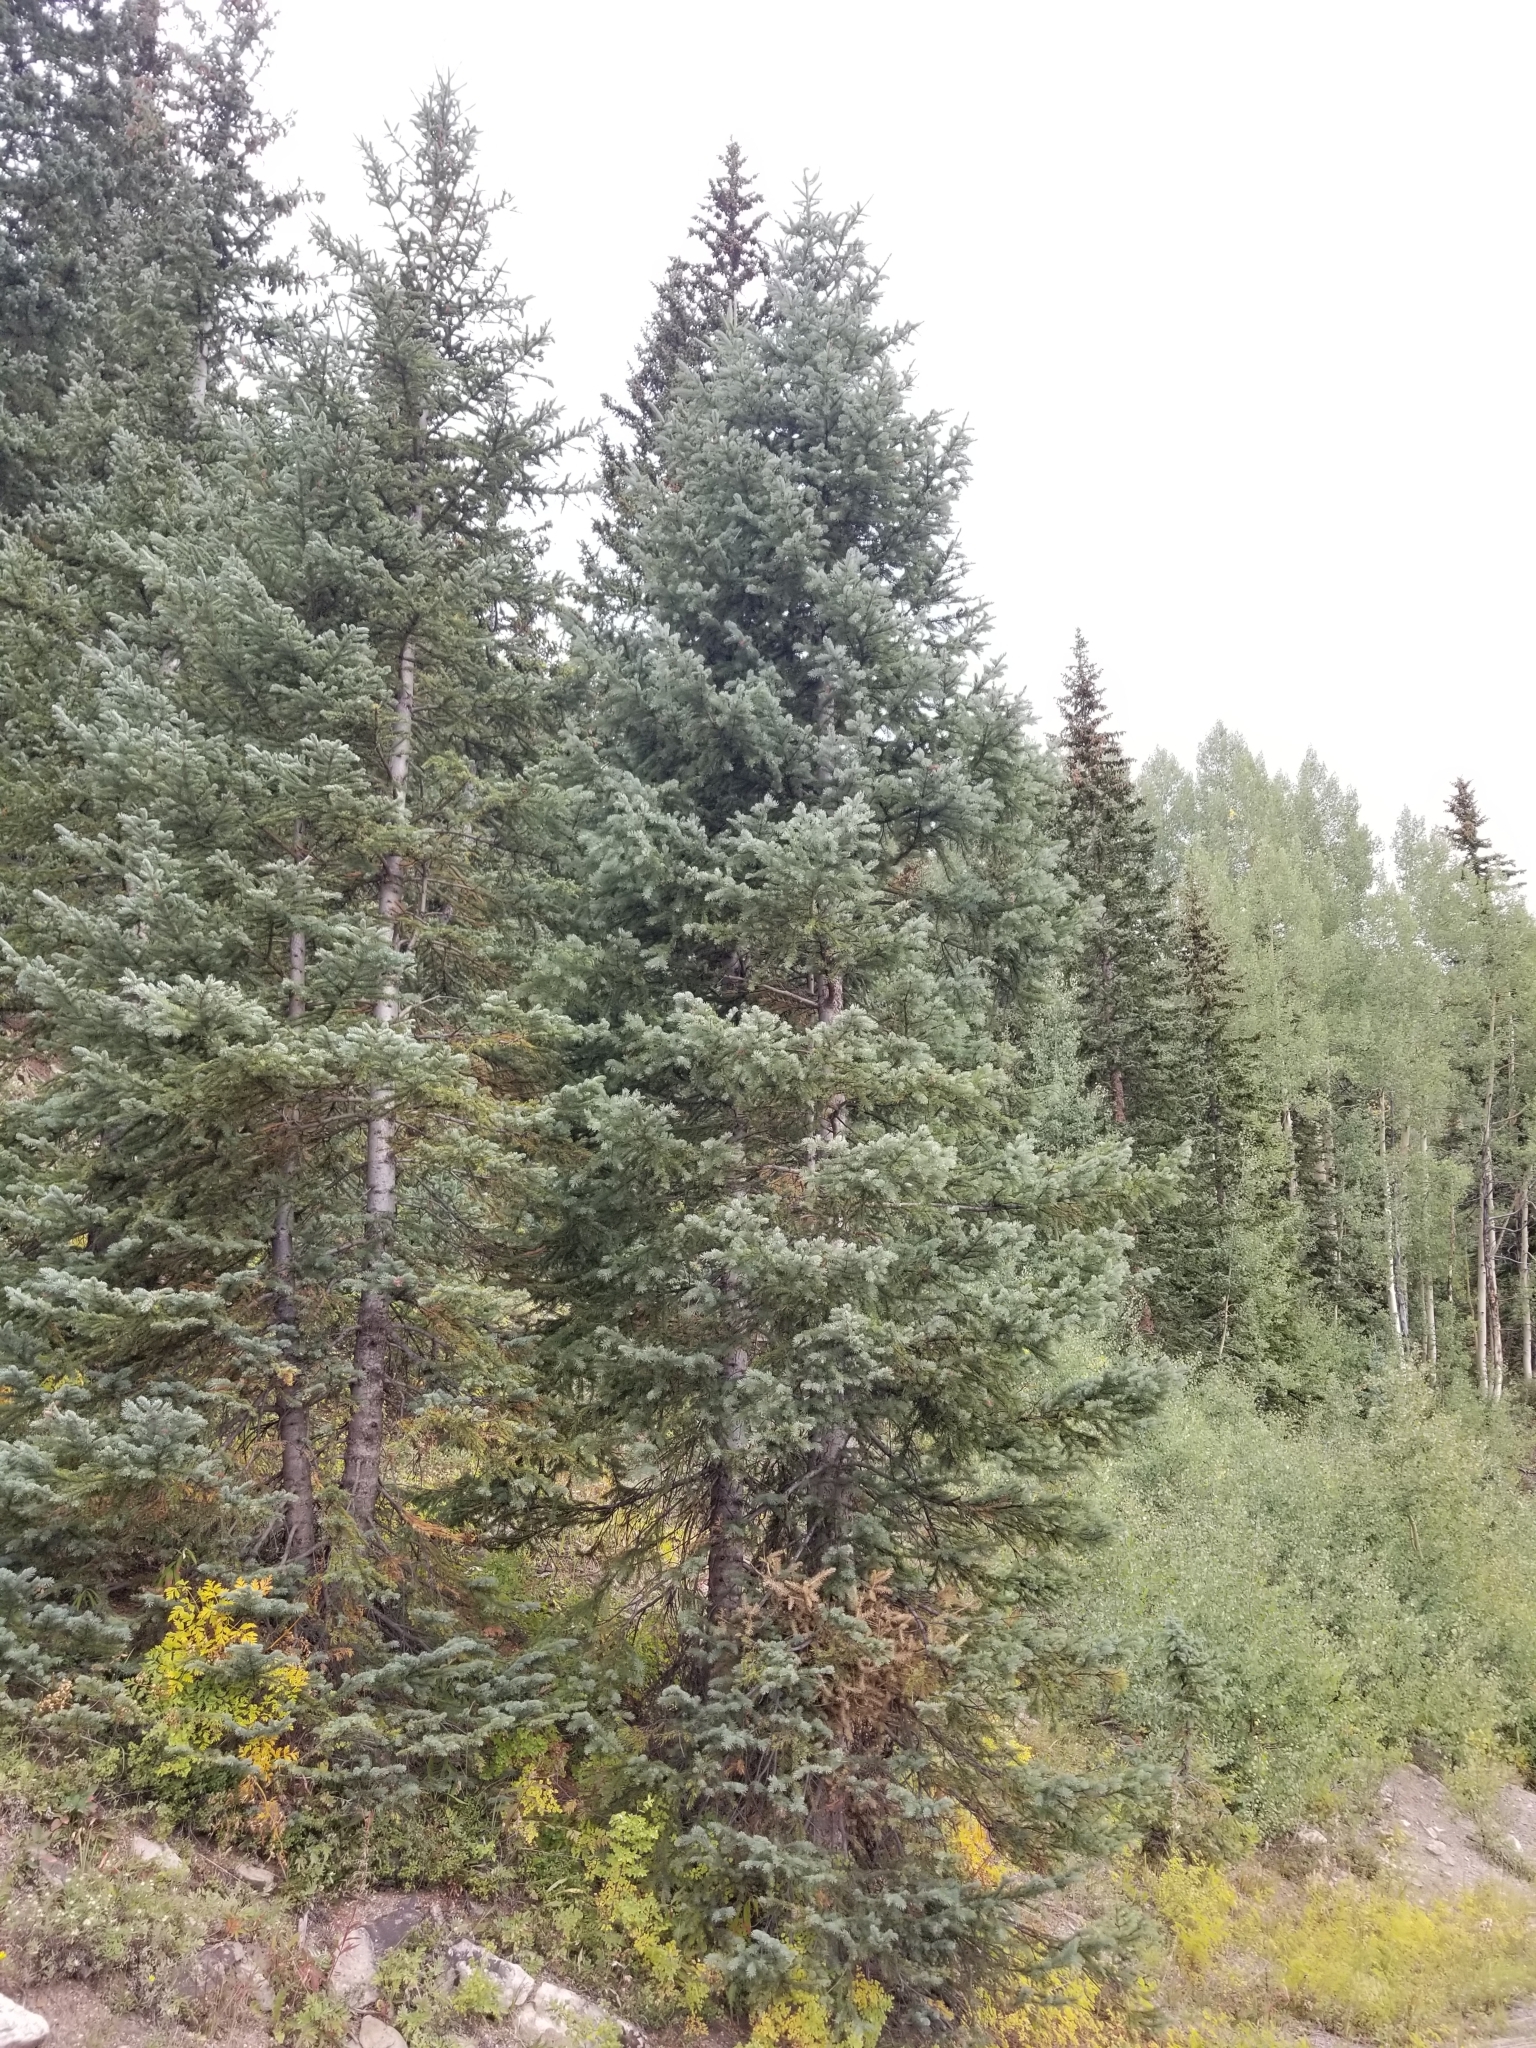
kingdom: Plantae
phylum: Tracheophyta
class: Pinopsida
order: Pinales
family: Pinaceae
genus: Picea
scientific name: Picea pungens
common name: Colorado spruce
